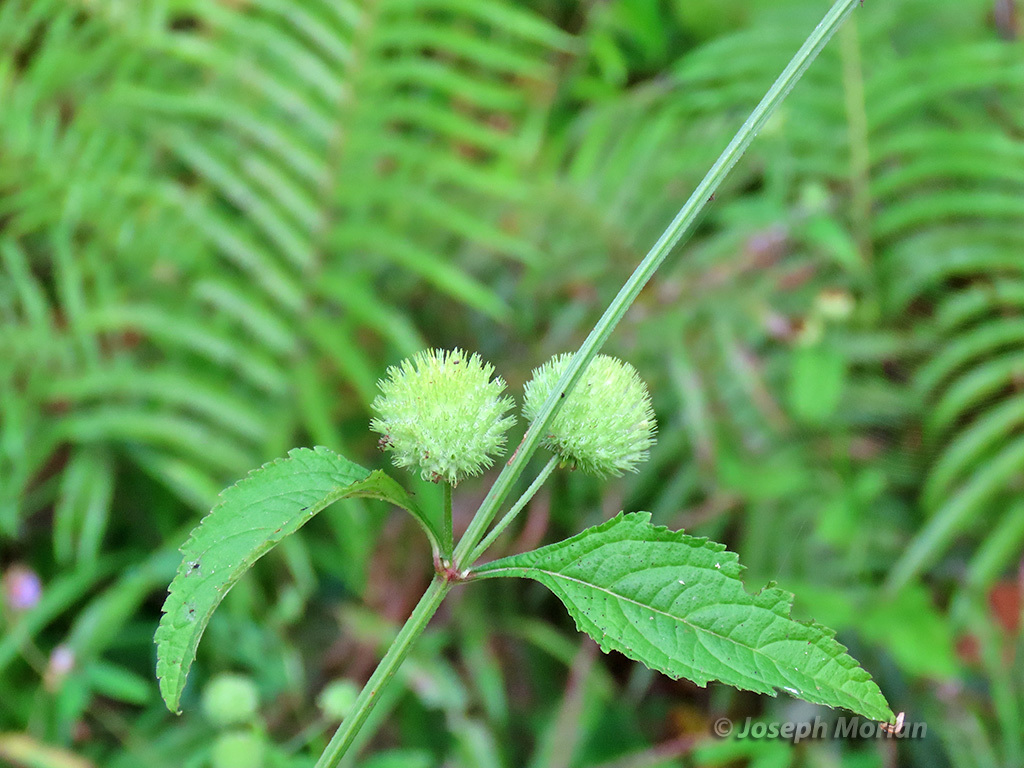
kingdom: Plantae
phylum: Tracheophyta
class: Magnoliopsida
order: Lamiales
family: Lamiaceae
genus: Hyptis
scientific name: Hyptis capitata
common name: False ironwort
